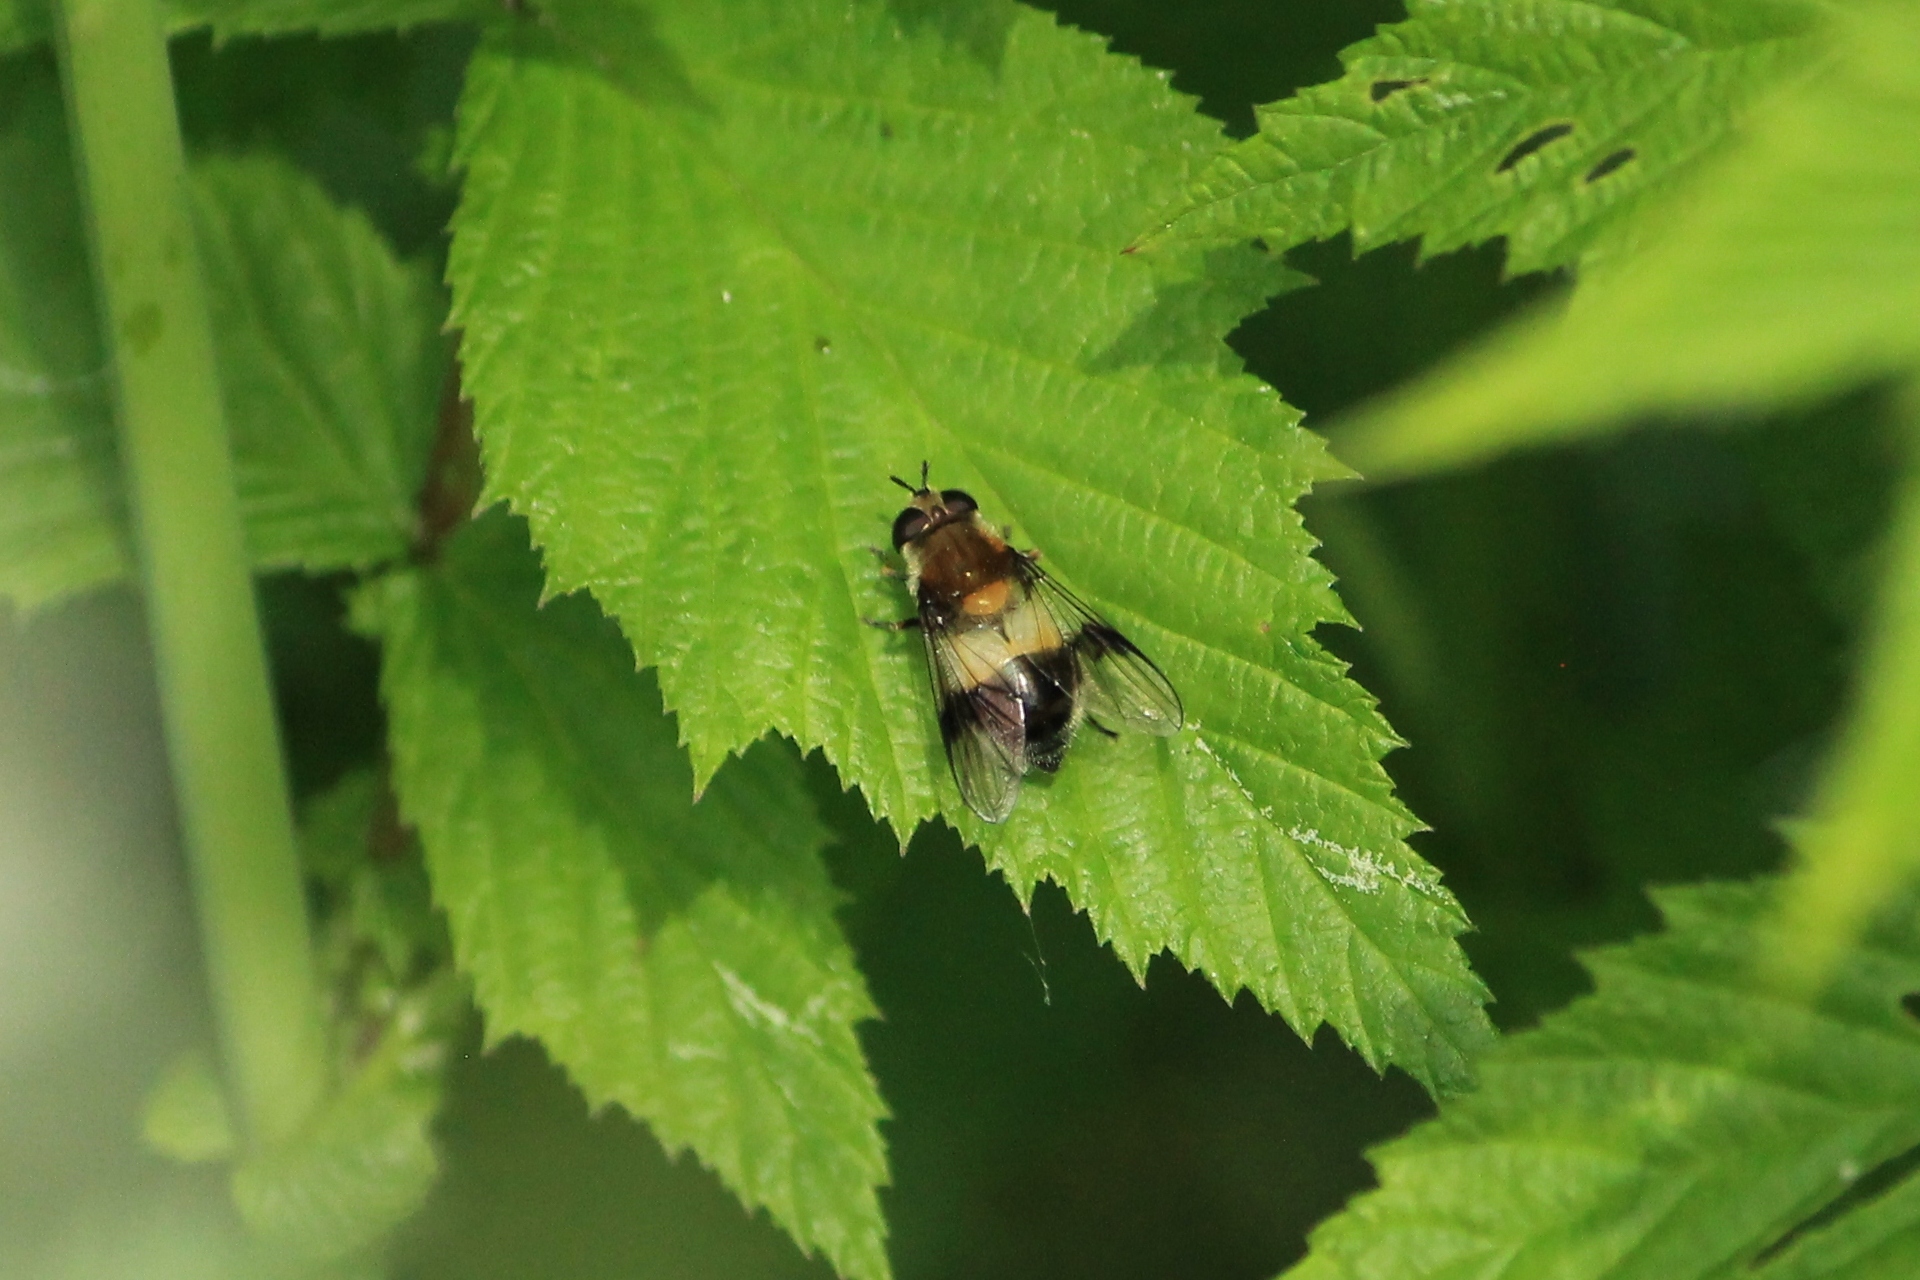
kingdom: Animalia
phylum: Arthropoda
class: Insecta
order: Diptera
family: Syrphidae
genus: Leucozona
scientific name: Leucozona lucorum
